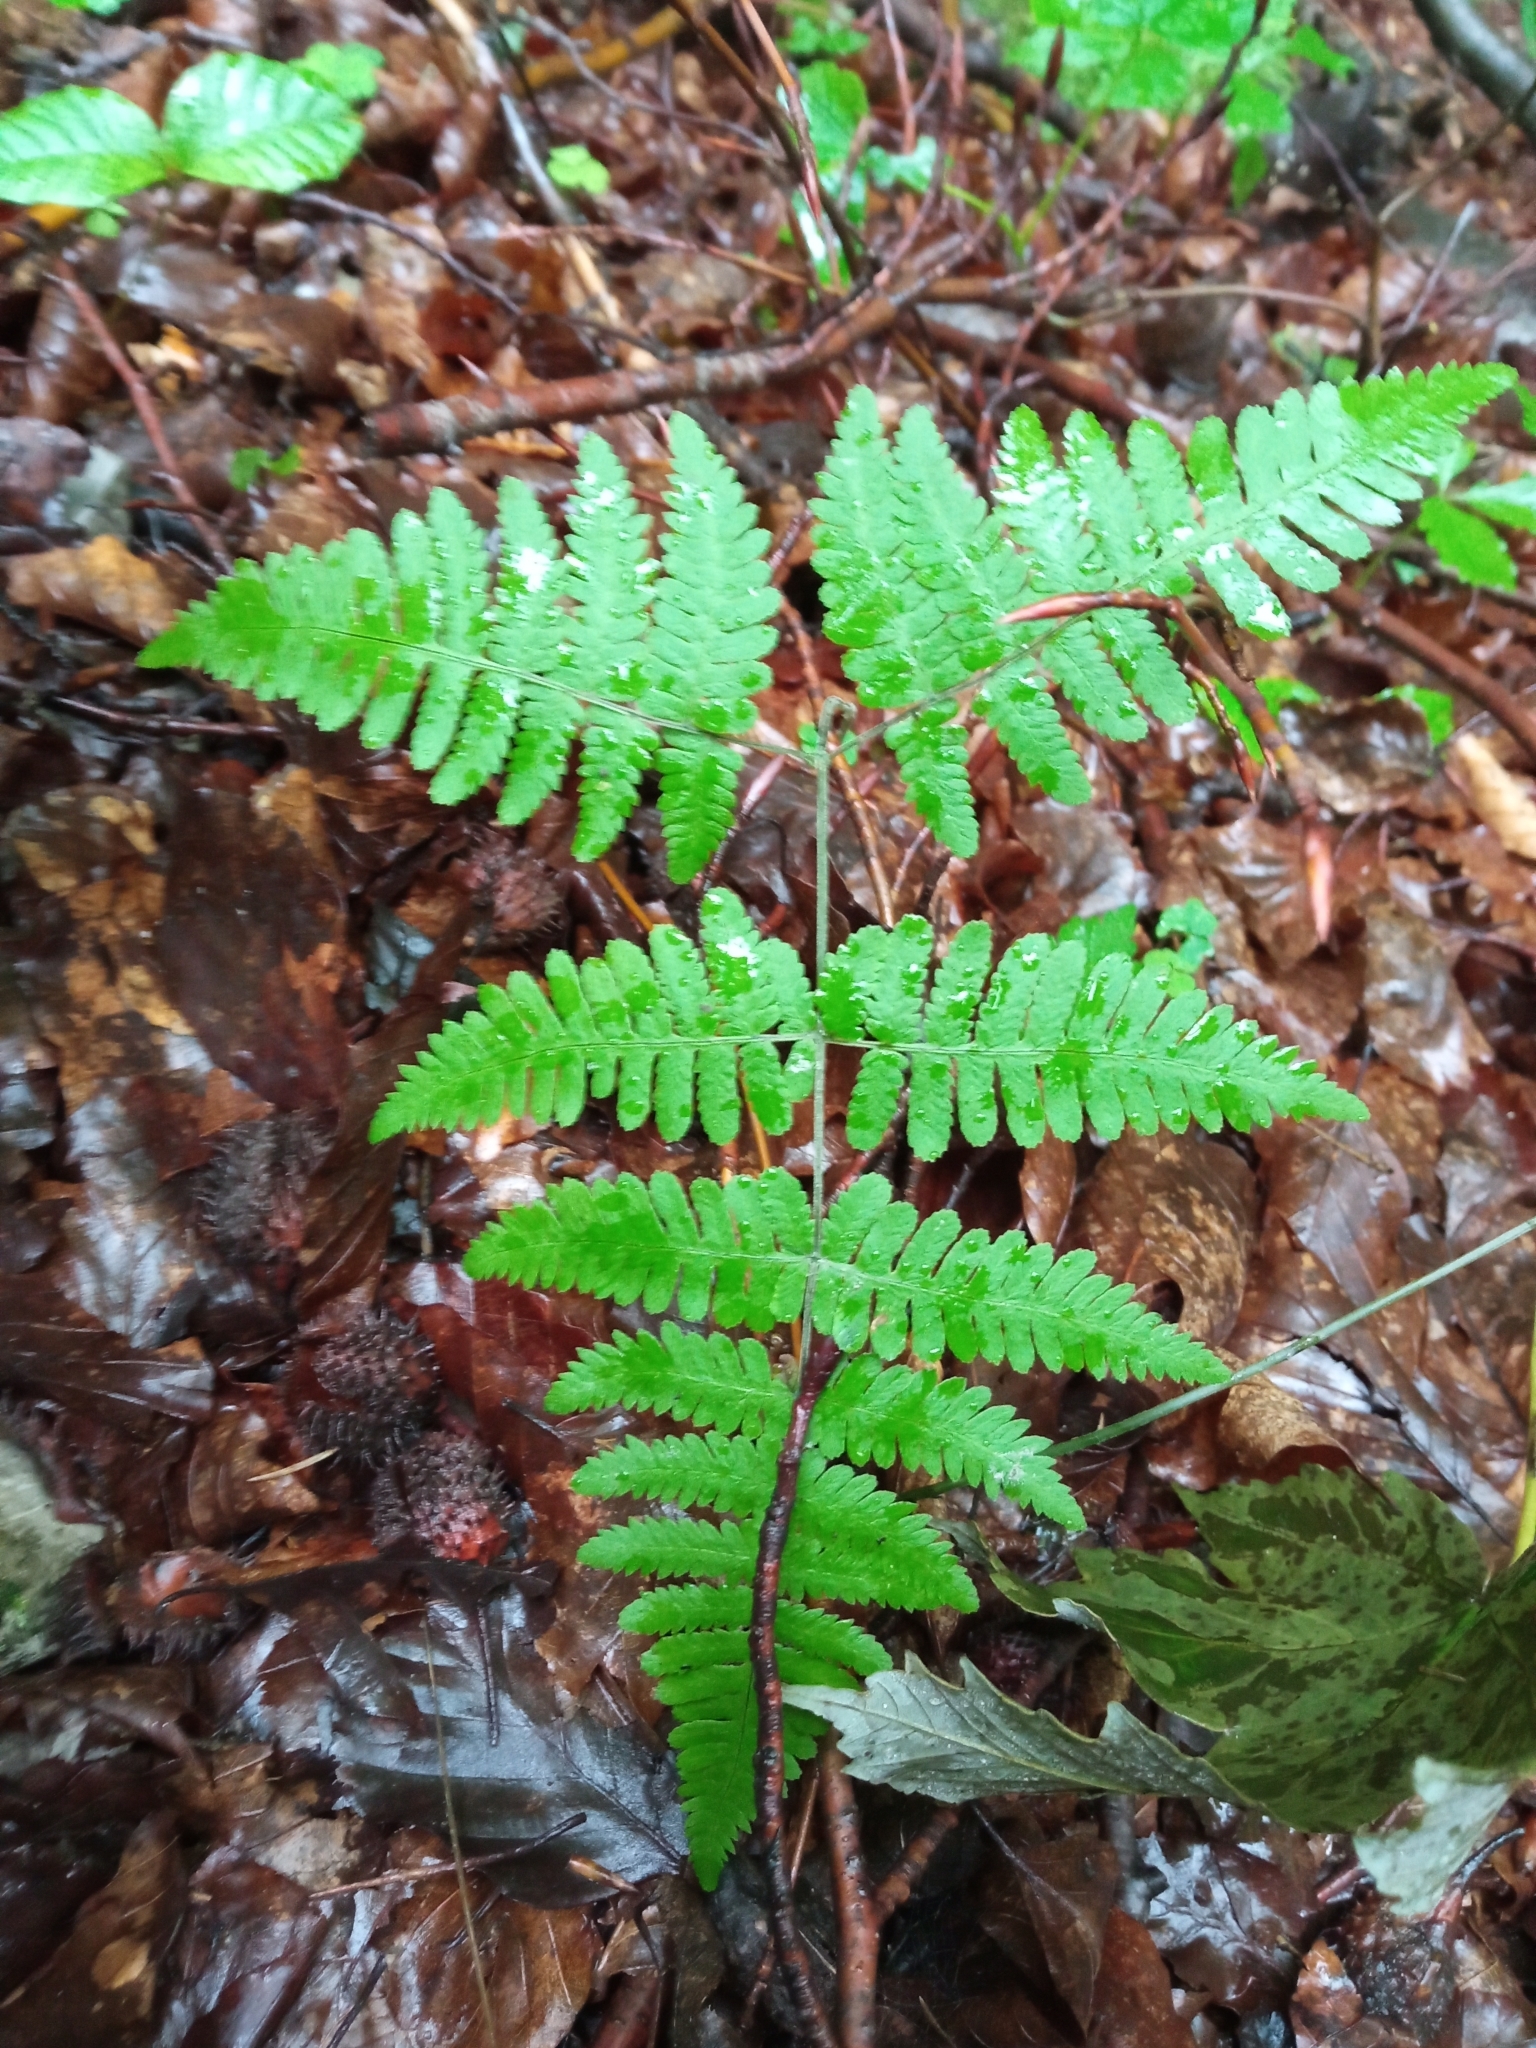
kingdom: Plantae
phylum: Tracheophyta
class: Polypodiopsida
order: Polypodiales
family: Cystopteridaceae
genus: Gymnocarpium
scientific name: Gymnocarpium dryopteris
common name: Oak fern
